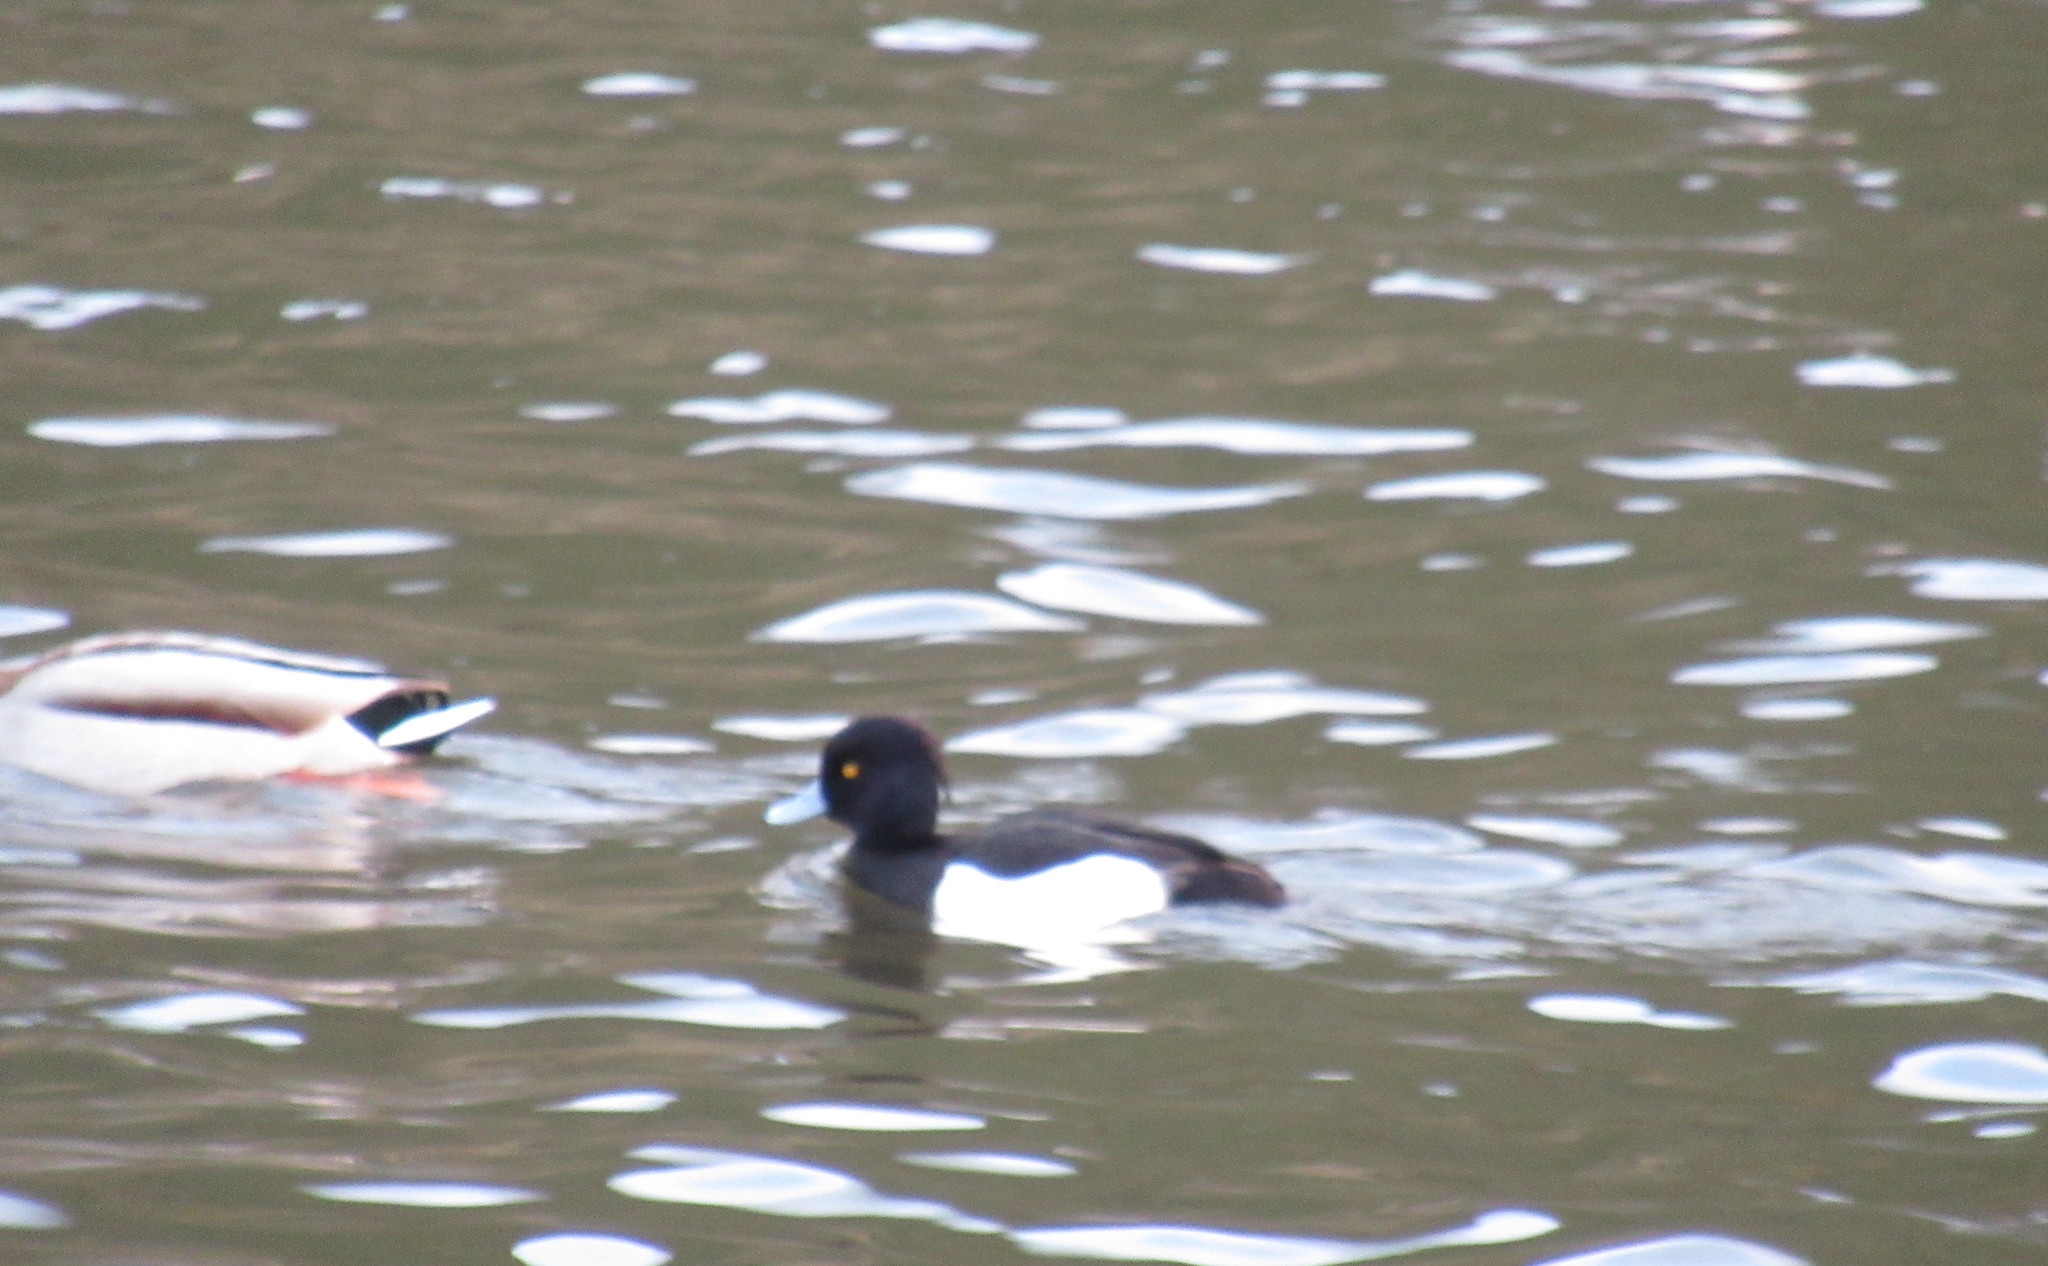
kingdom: Animalia
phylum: Chordata
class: Aves
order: Anseriformes
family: Anatidae
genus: Aythya
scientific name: Aythya fuligula
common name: Tufted duck
